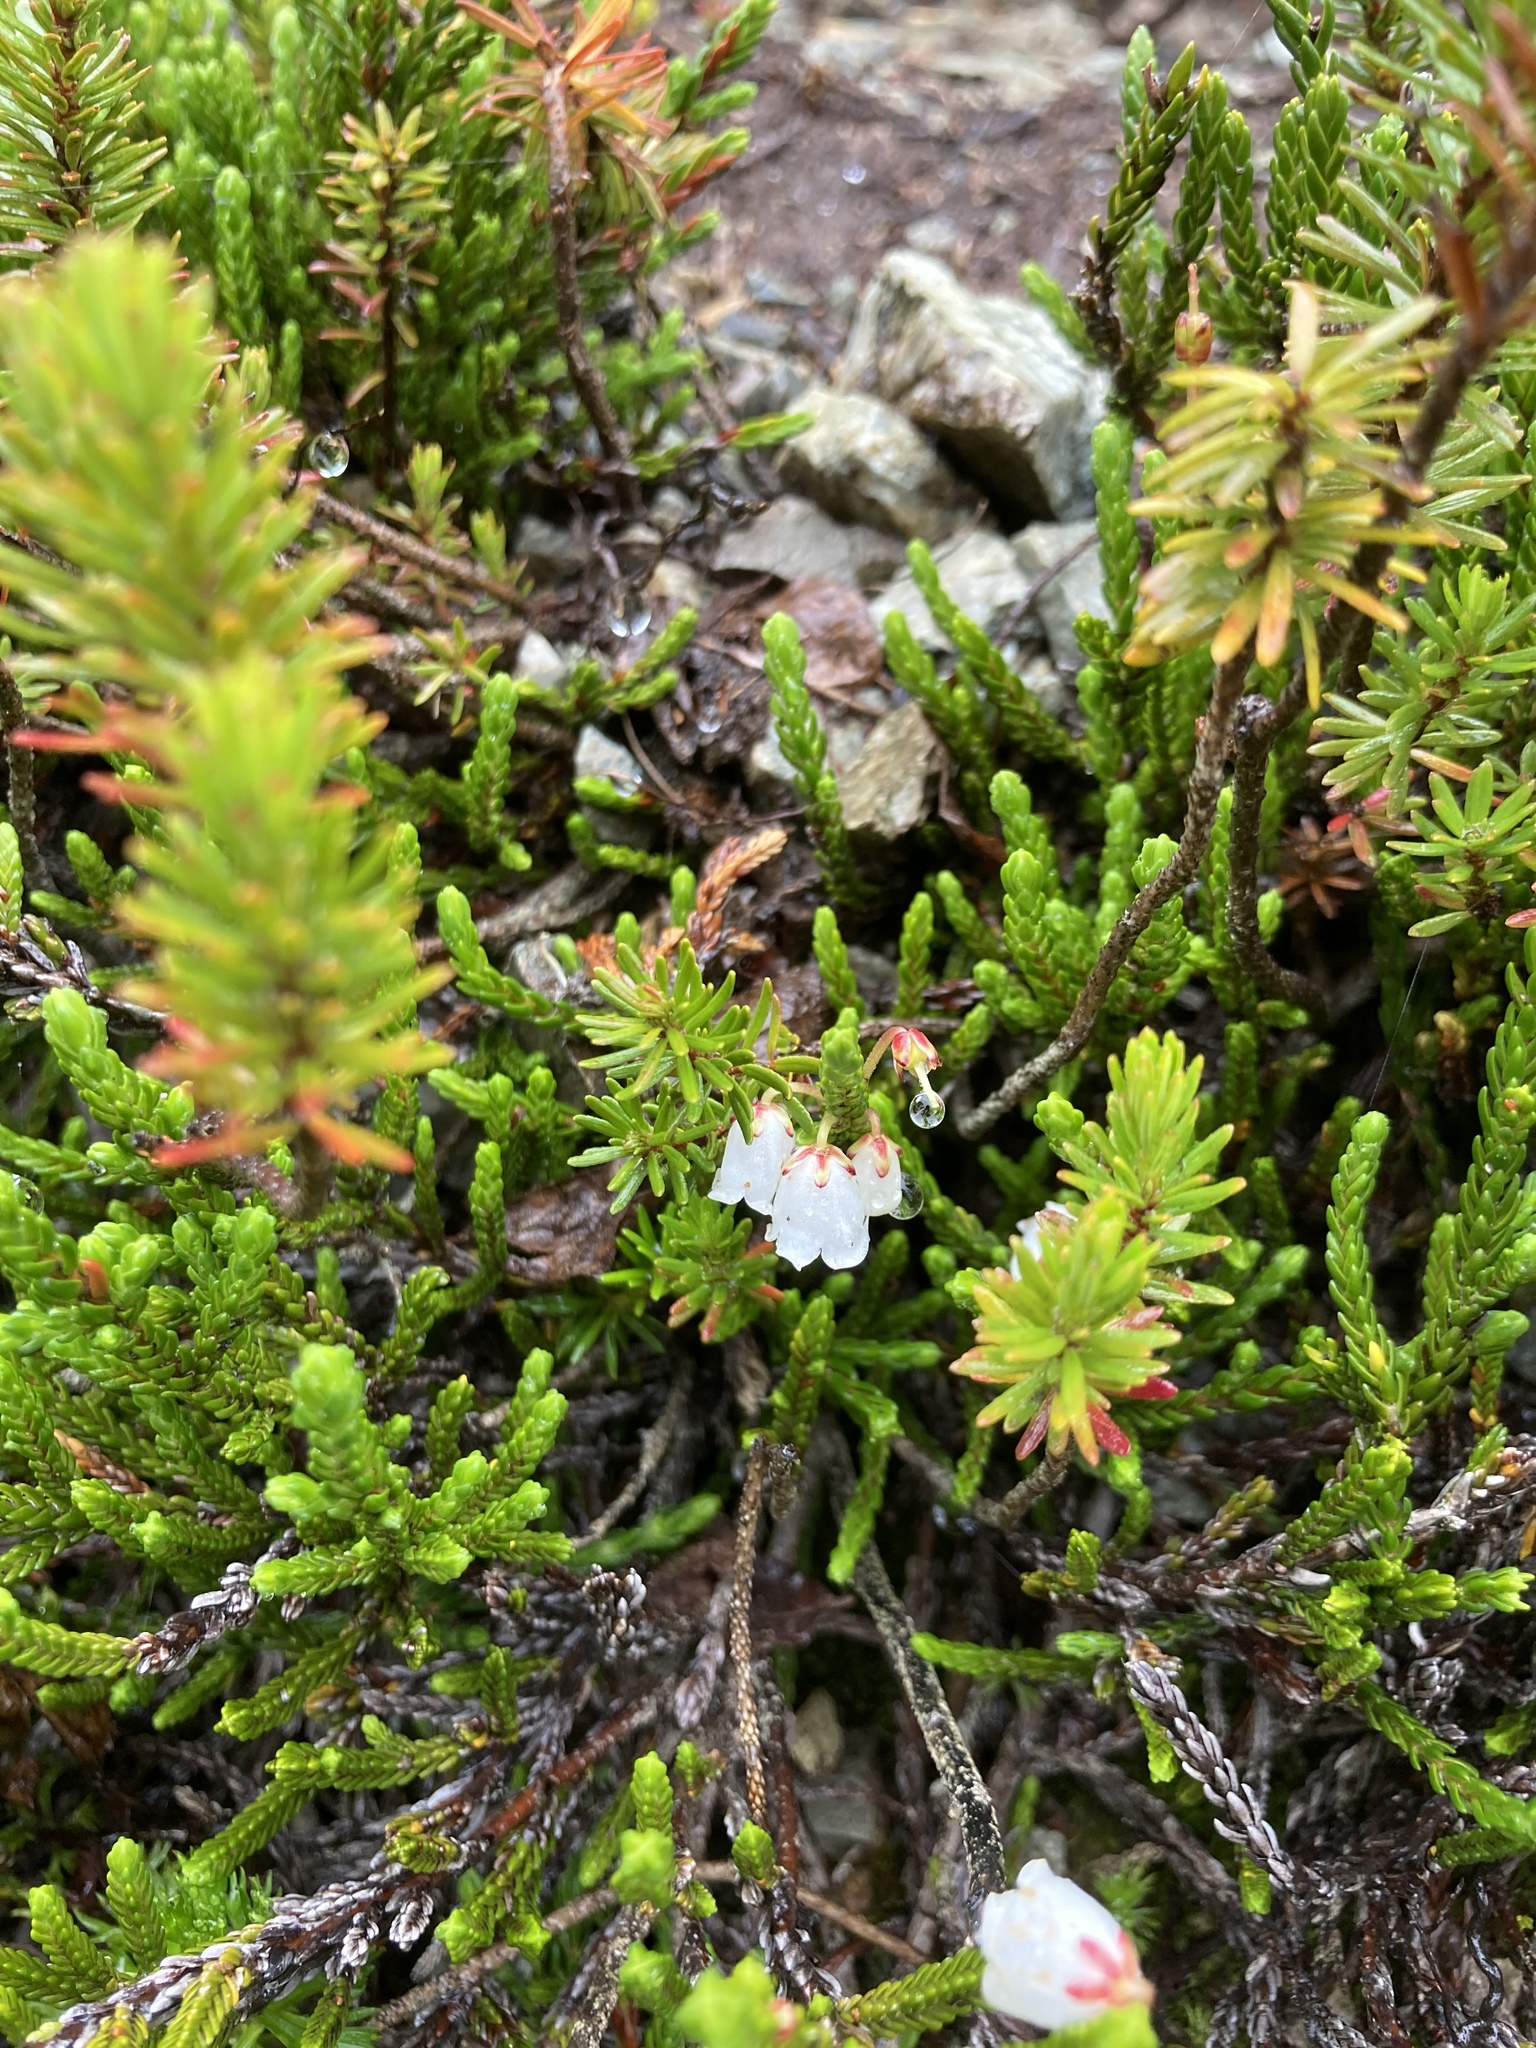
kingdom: Plantae
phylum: Tracheophyta
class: Magnoliopsida
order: Ericales
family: Ericaceae
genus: Cassiope
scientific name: Cassiope mertensiana
